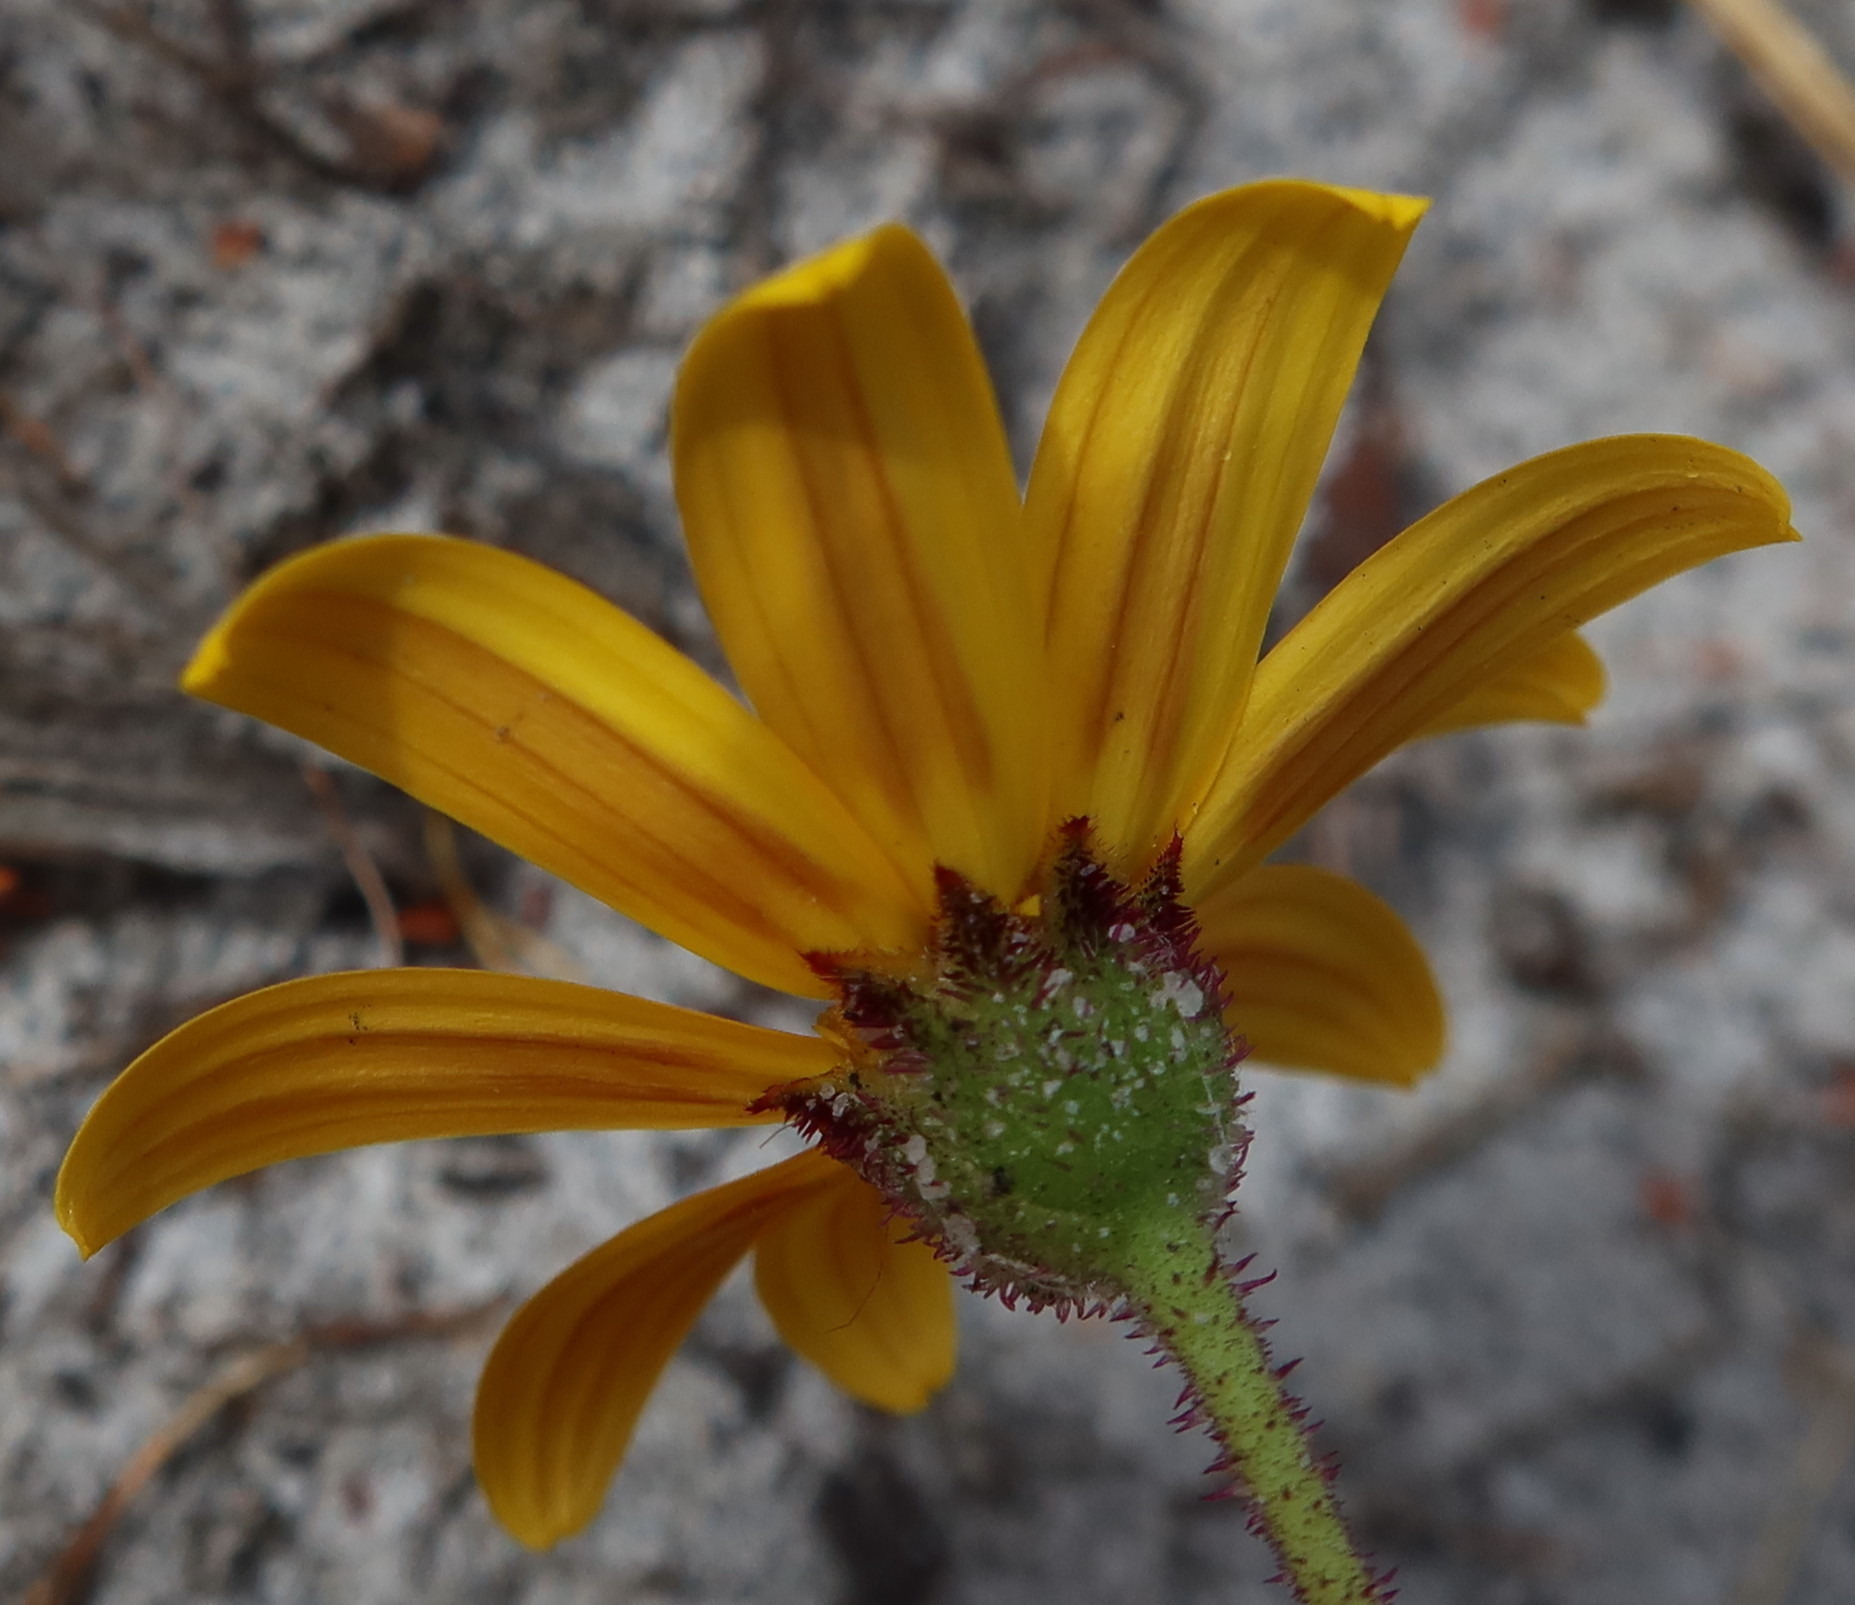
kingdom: Plantae
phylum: Tracheophyta
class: Magnoliopsida
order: Asterales
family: Asteraceae
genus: Osteospermum
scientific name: Osteospermum polygaloides
